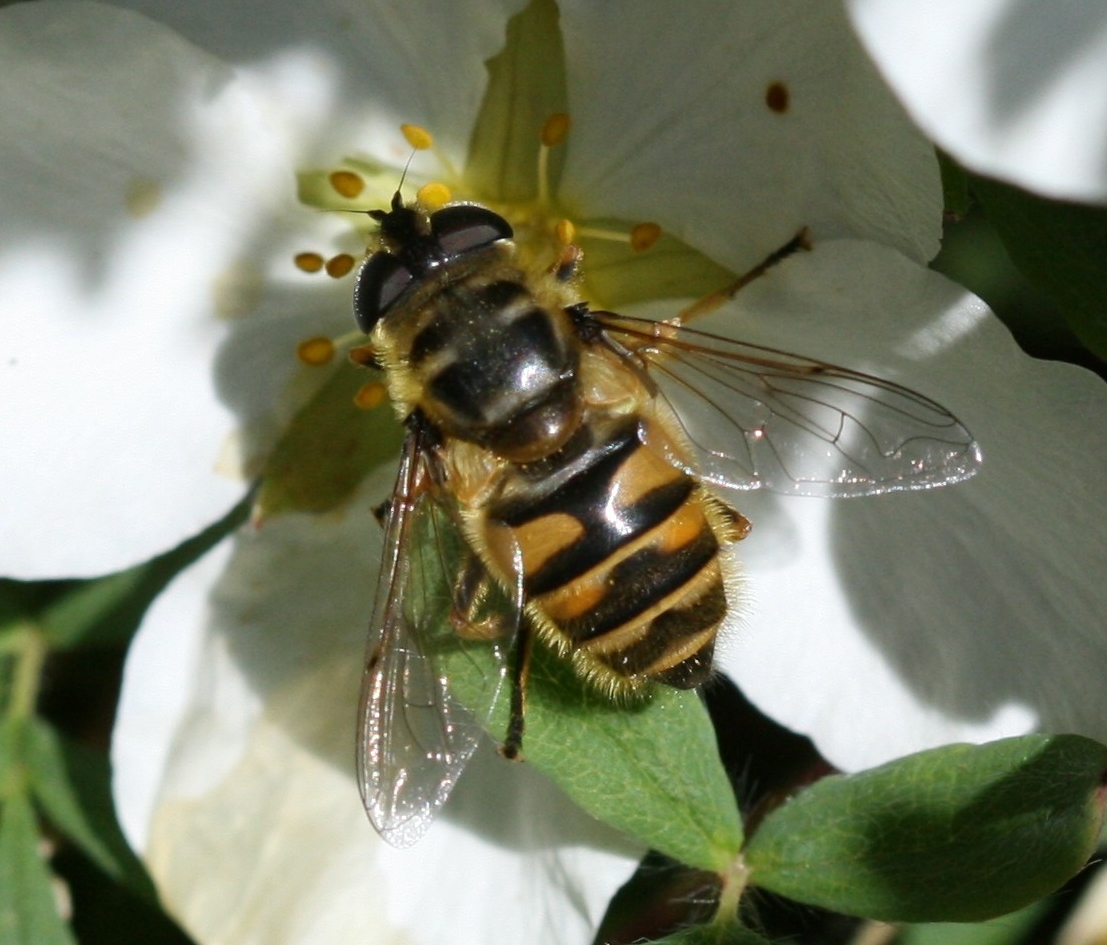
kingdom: Animalia
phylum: Arthropoda
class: Insecta
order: Diptera
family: Syrphidae
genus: Myathropa
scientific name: Myathropa florea
